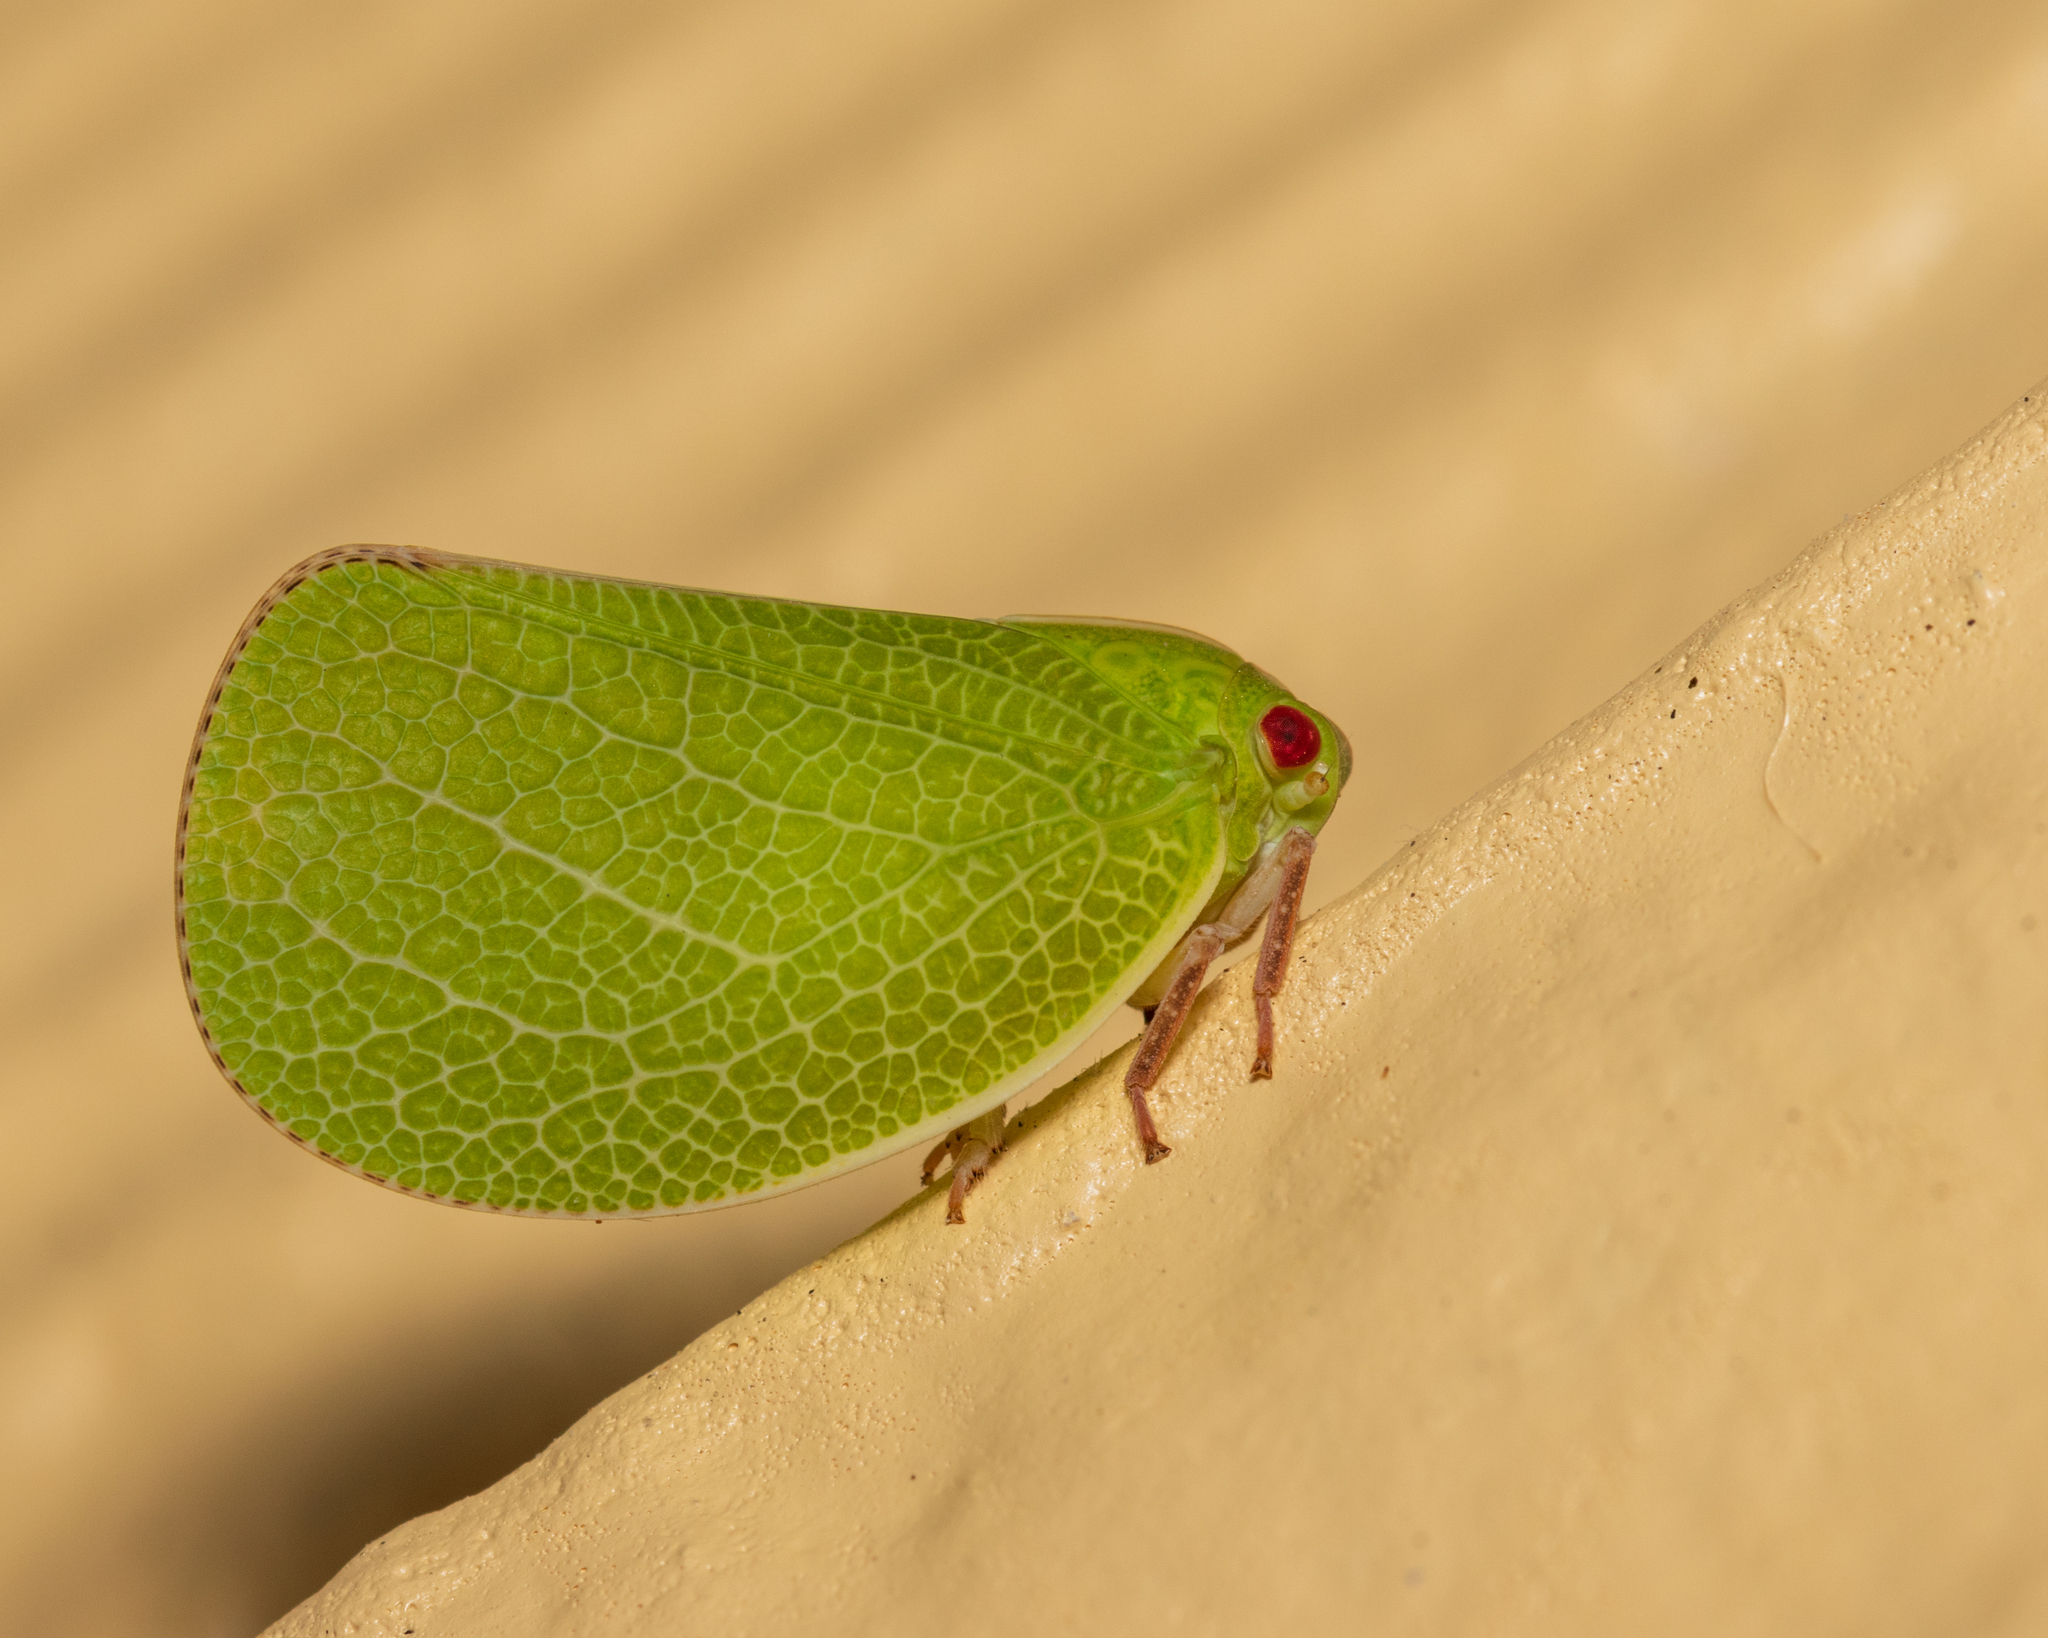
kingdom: Animalia
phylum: Arthropoda
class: Insecta
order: Hemiptera
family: Acanaloniidae
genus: Acanalonia
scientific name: Acanalonia servillei
